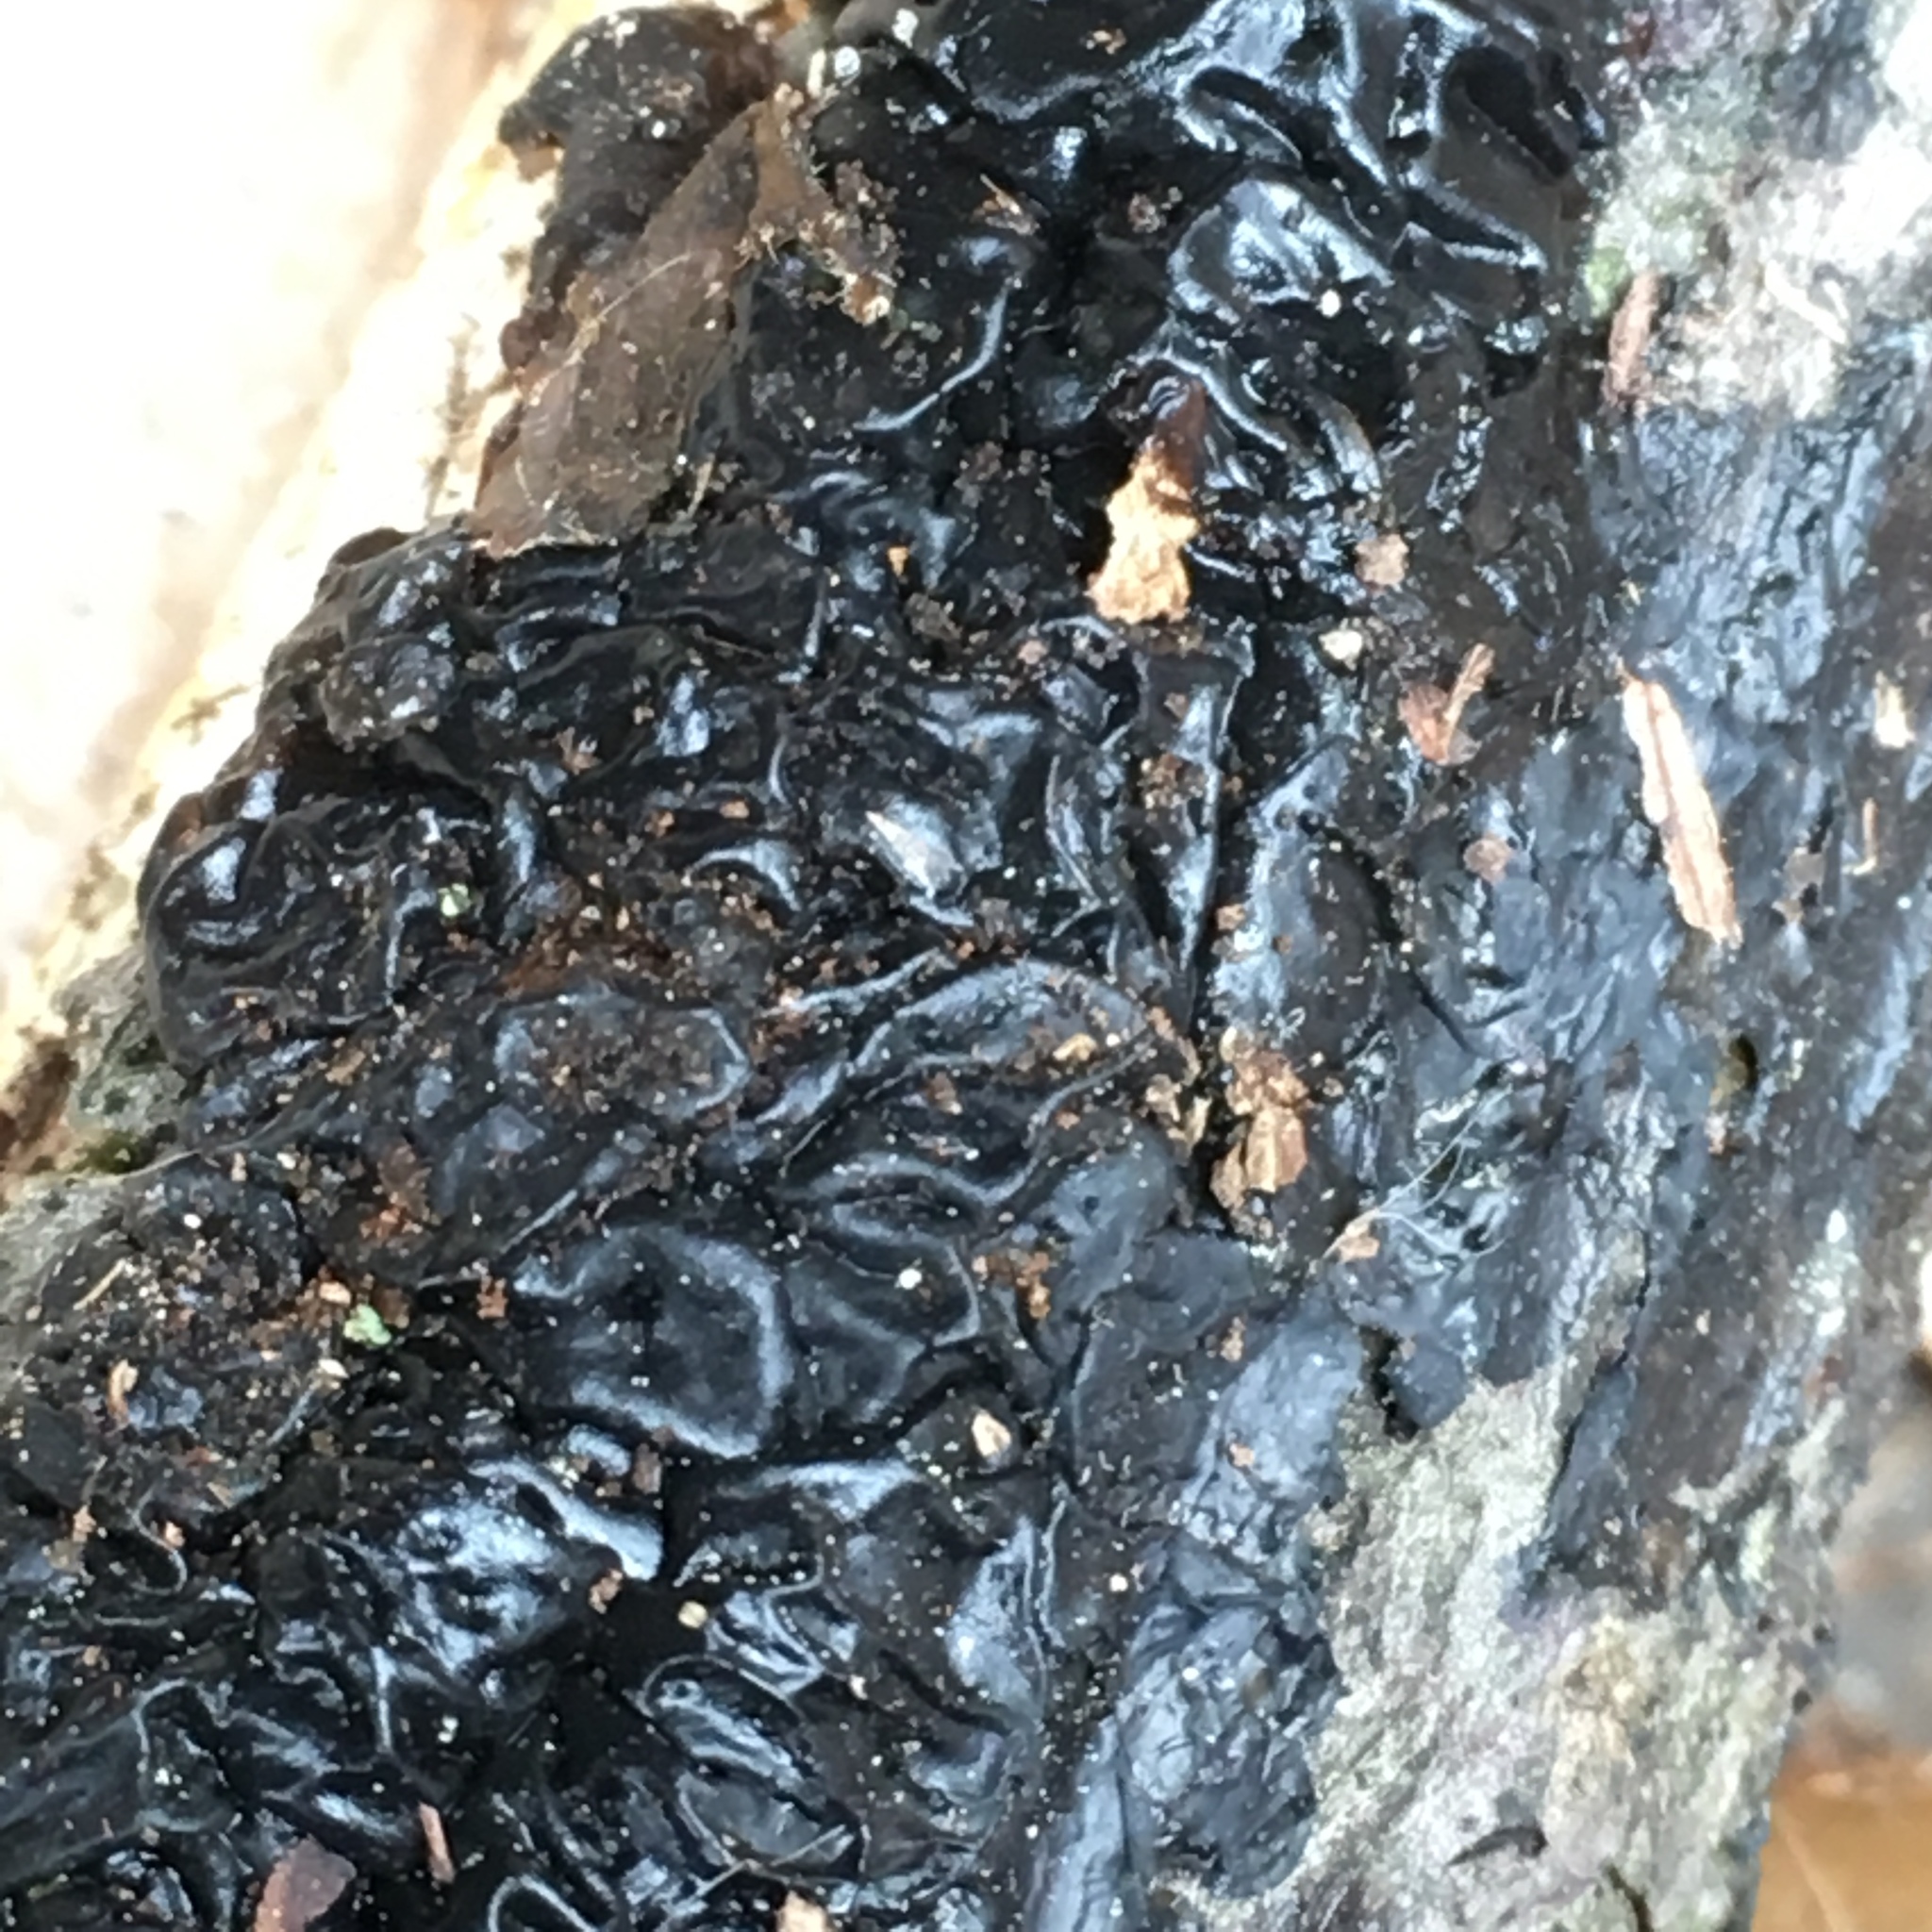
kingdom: Fungi
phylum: Basidiomycota
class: Agaricomycetes
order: Auriculariales
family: Auriculariaceae
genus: Exidia
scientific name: Exidia glandulosa
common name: Witches' butter
